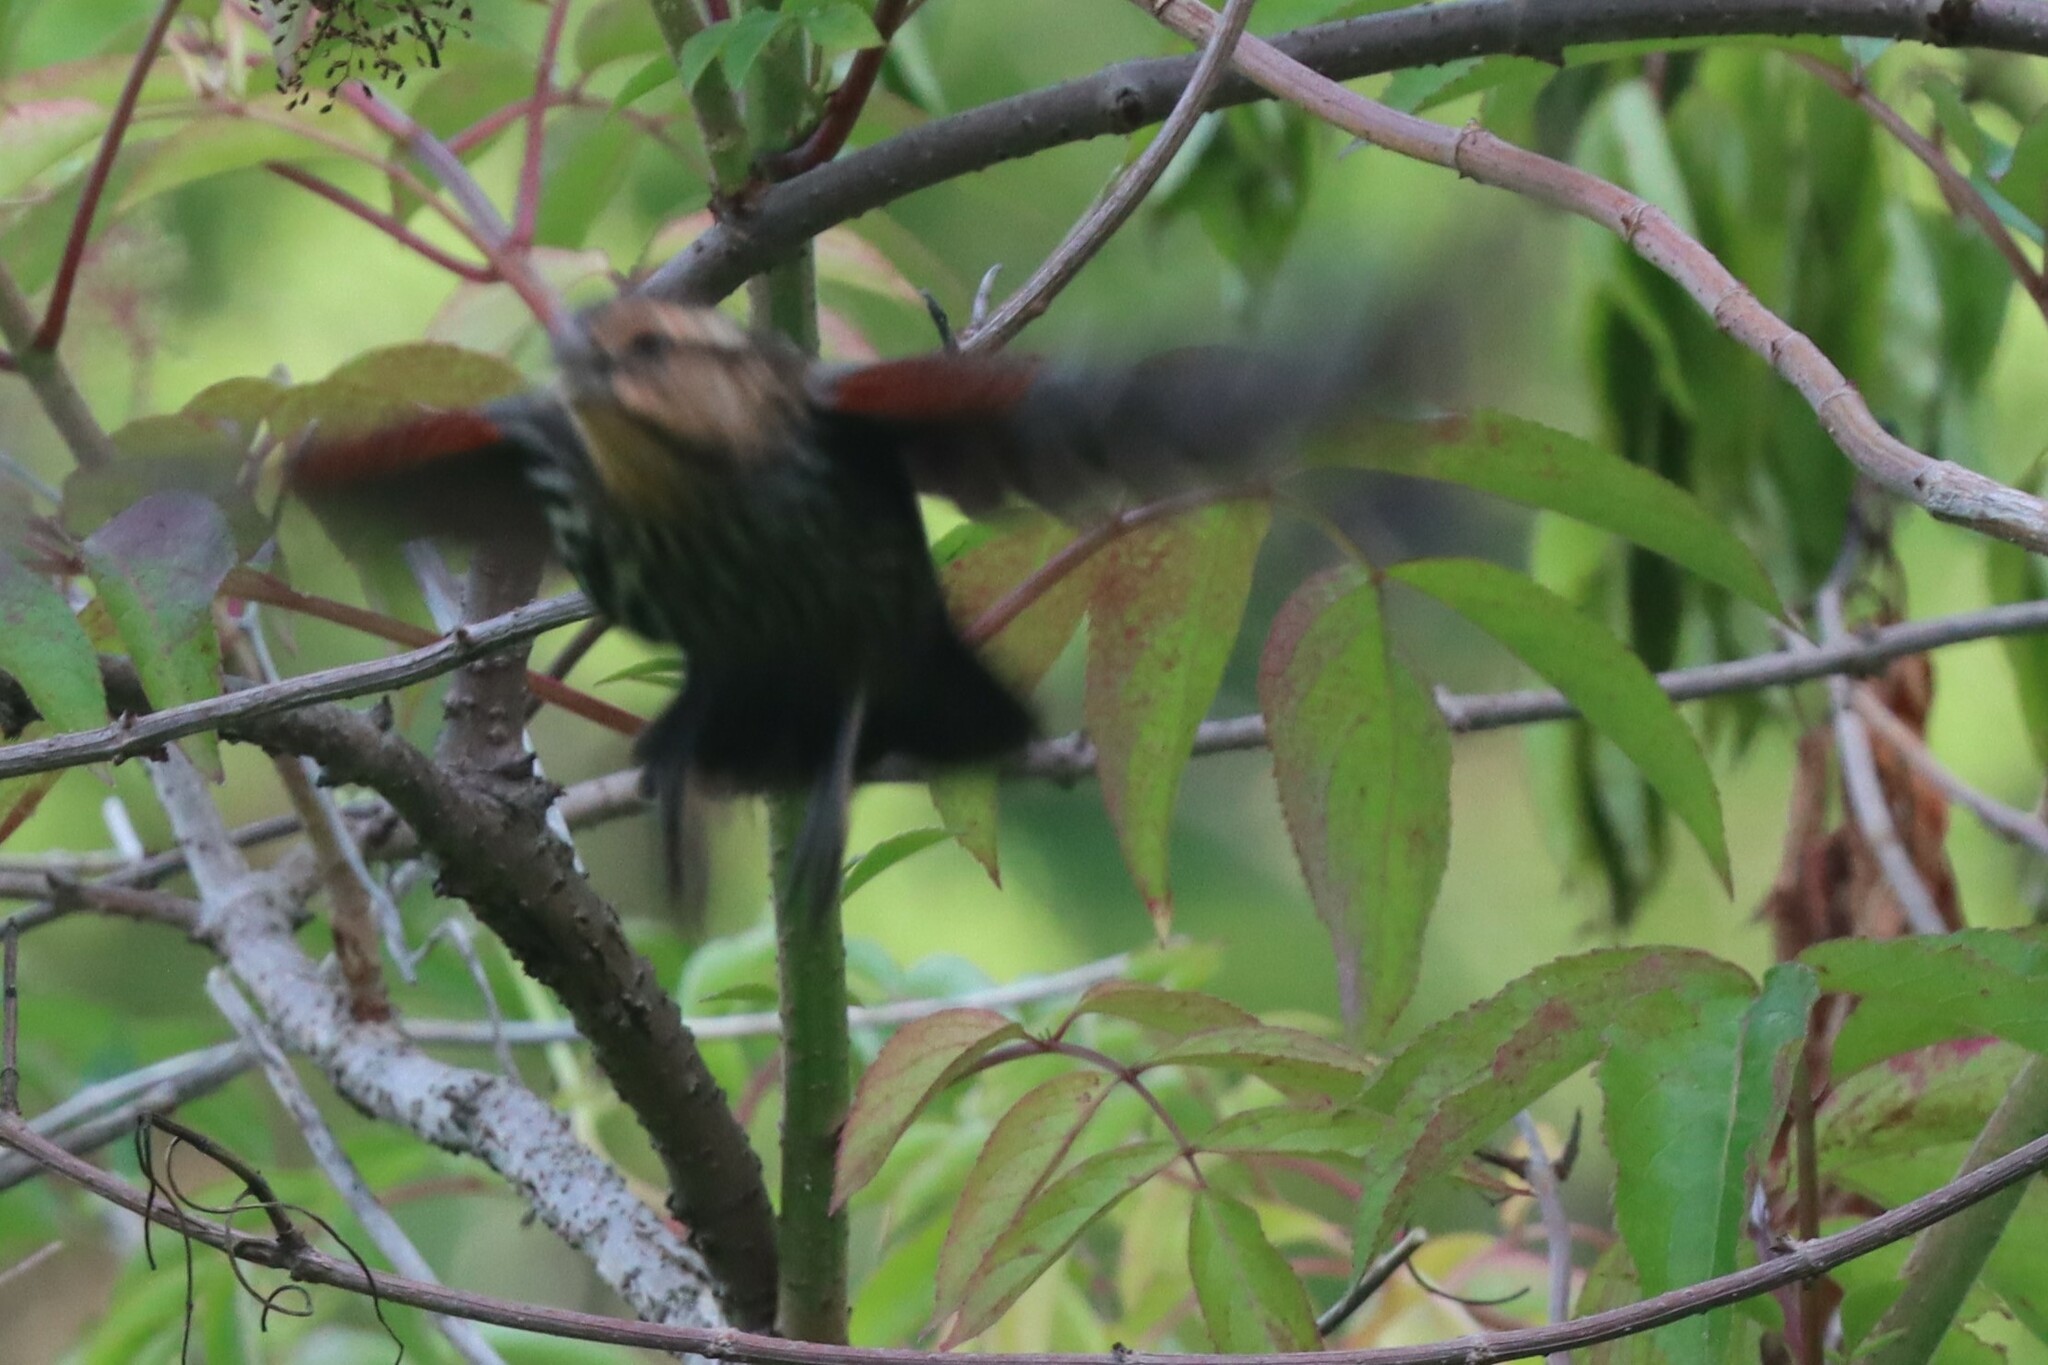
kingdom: Animalia
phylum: Chordata
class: Aves
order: Passeriformes
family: Icteridae
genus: Agelaius
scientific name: Agelaius phoeniceus
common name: Red-winged blackbird
